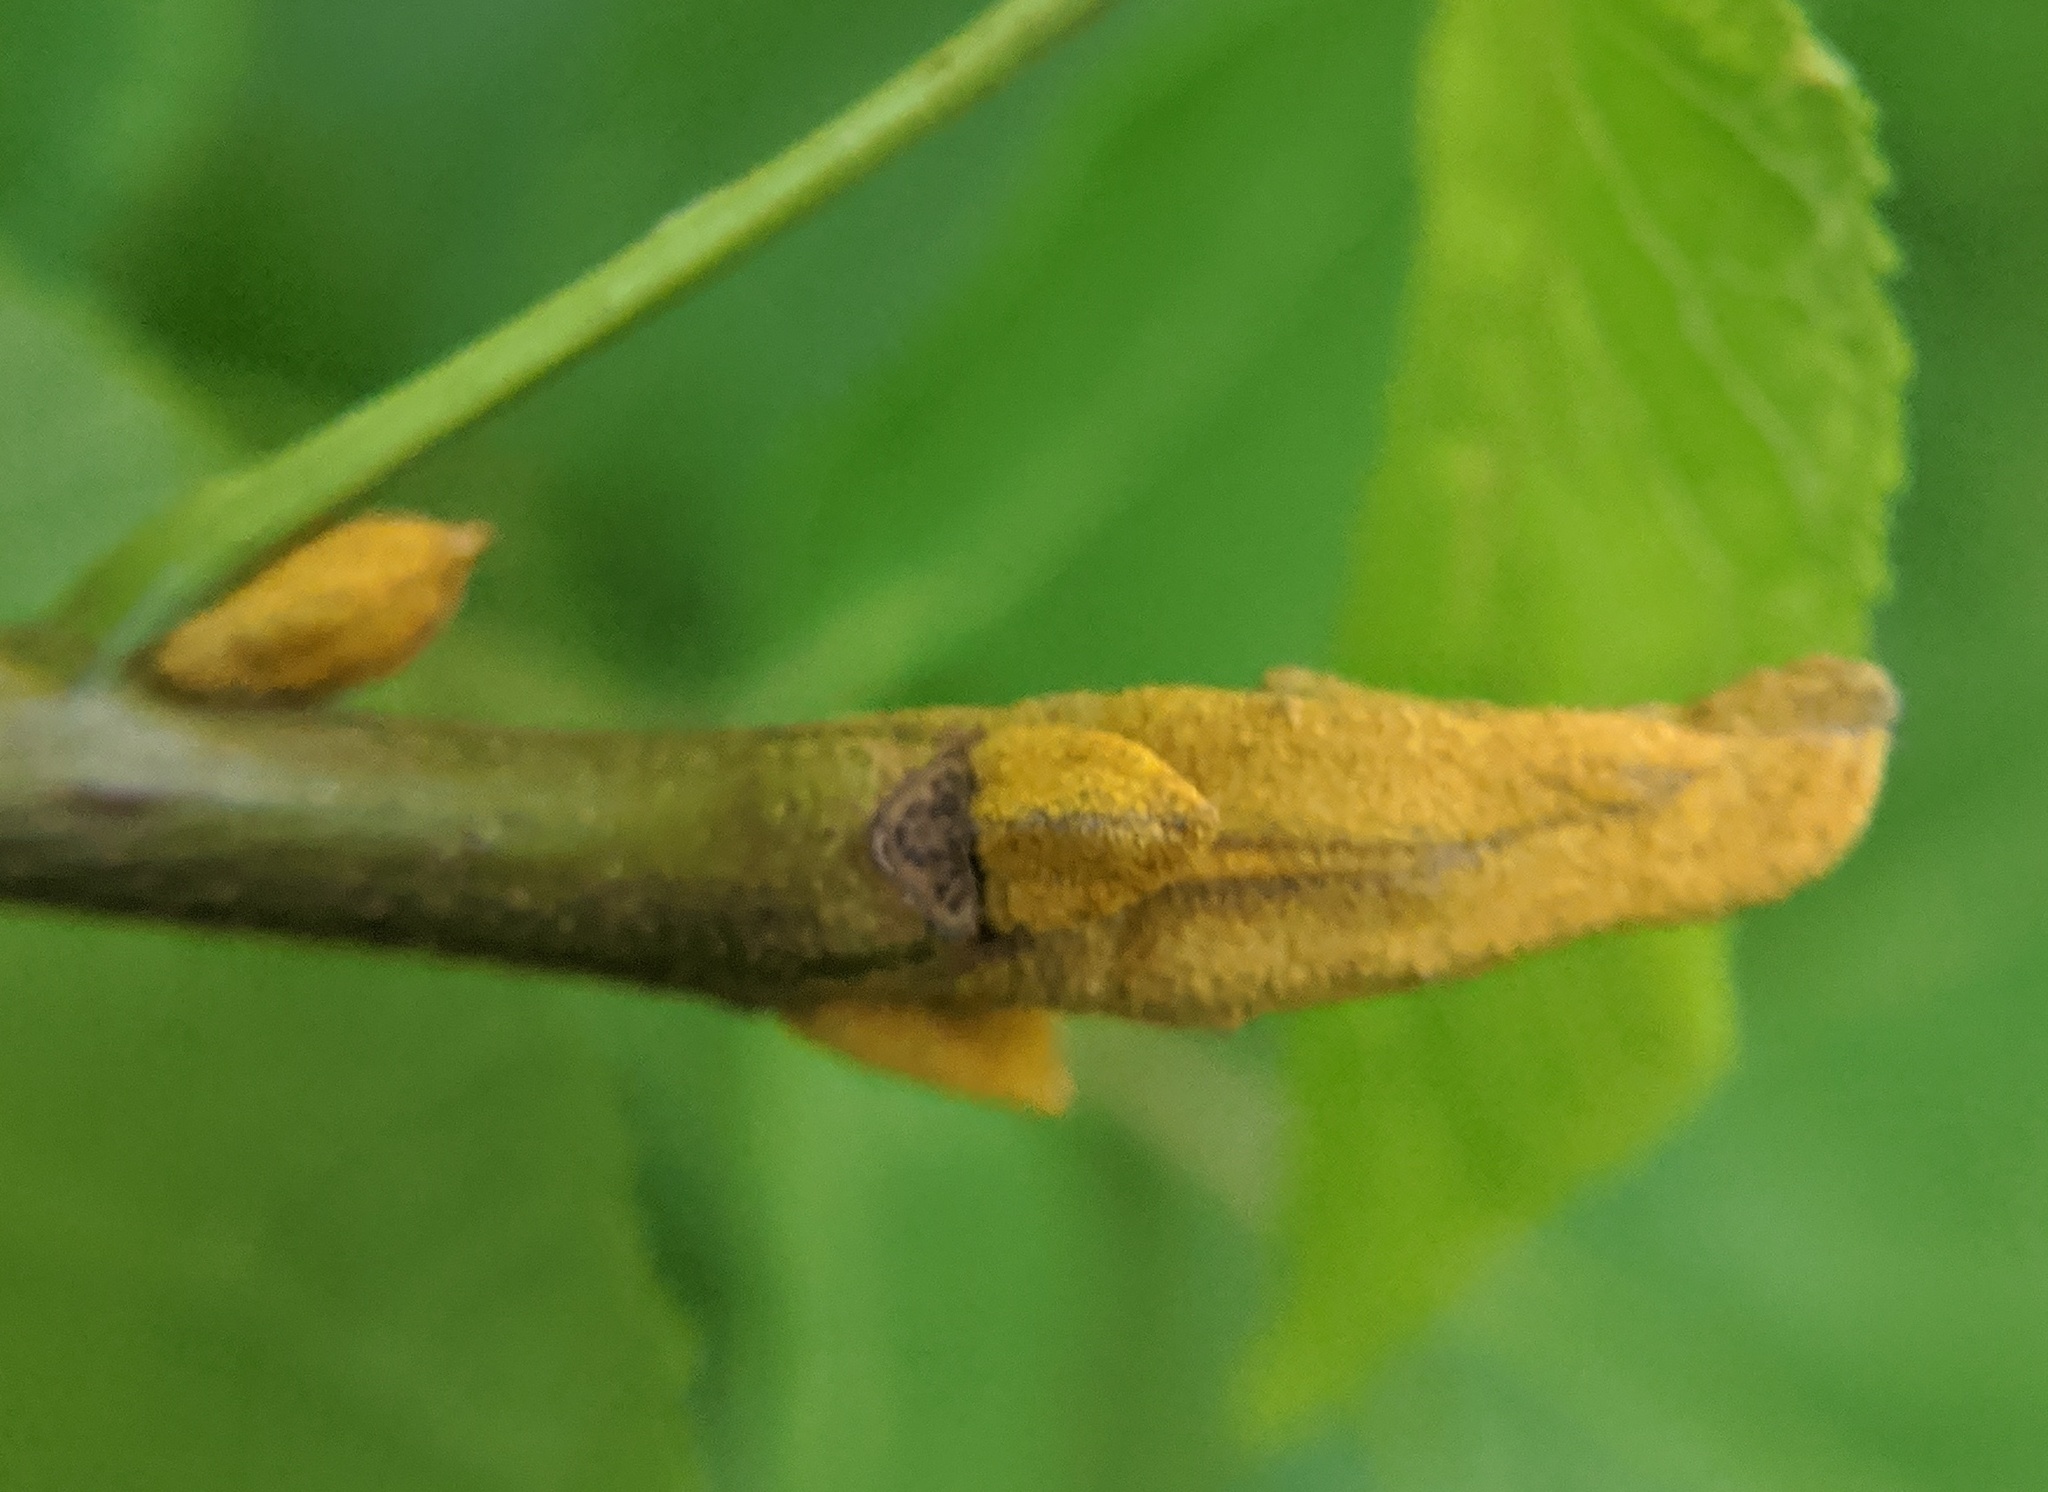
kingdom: Plantae
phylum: Tracheophyta
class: Magnoliopsida
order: Fagales
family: Juglandaceae
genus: Carya
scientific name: Carya cordiformis
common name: Bitternut hickory
